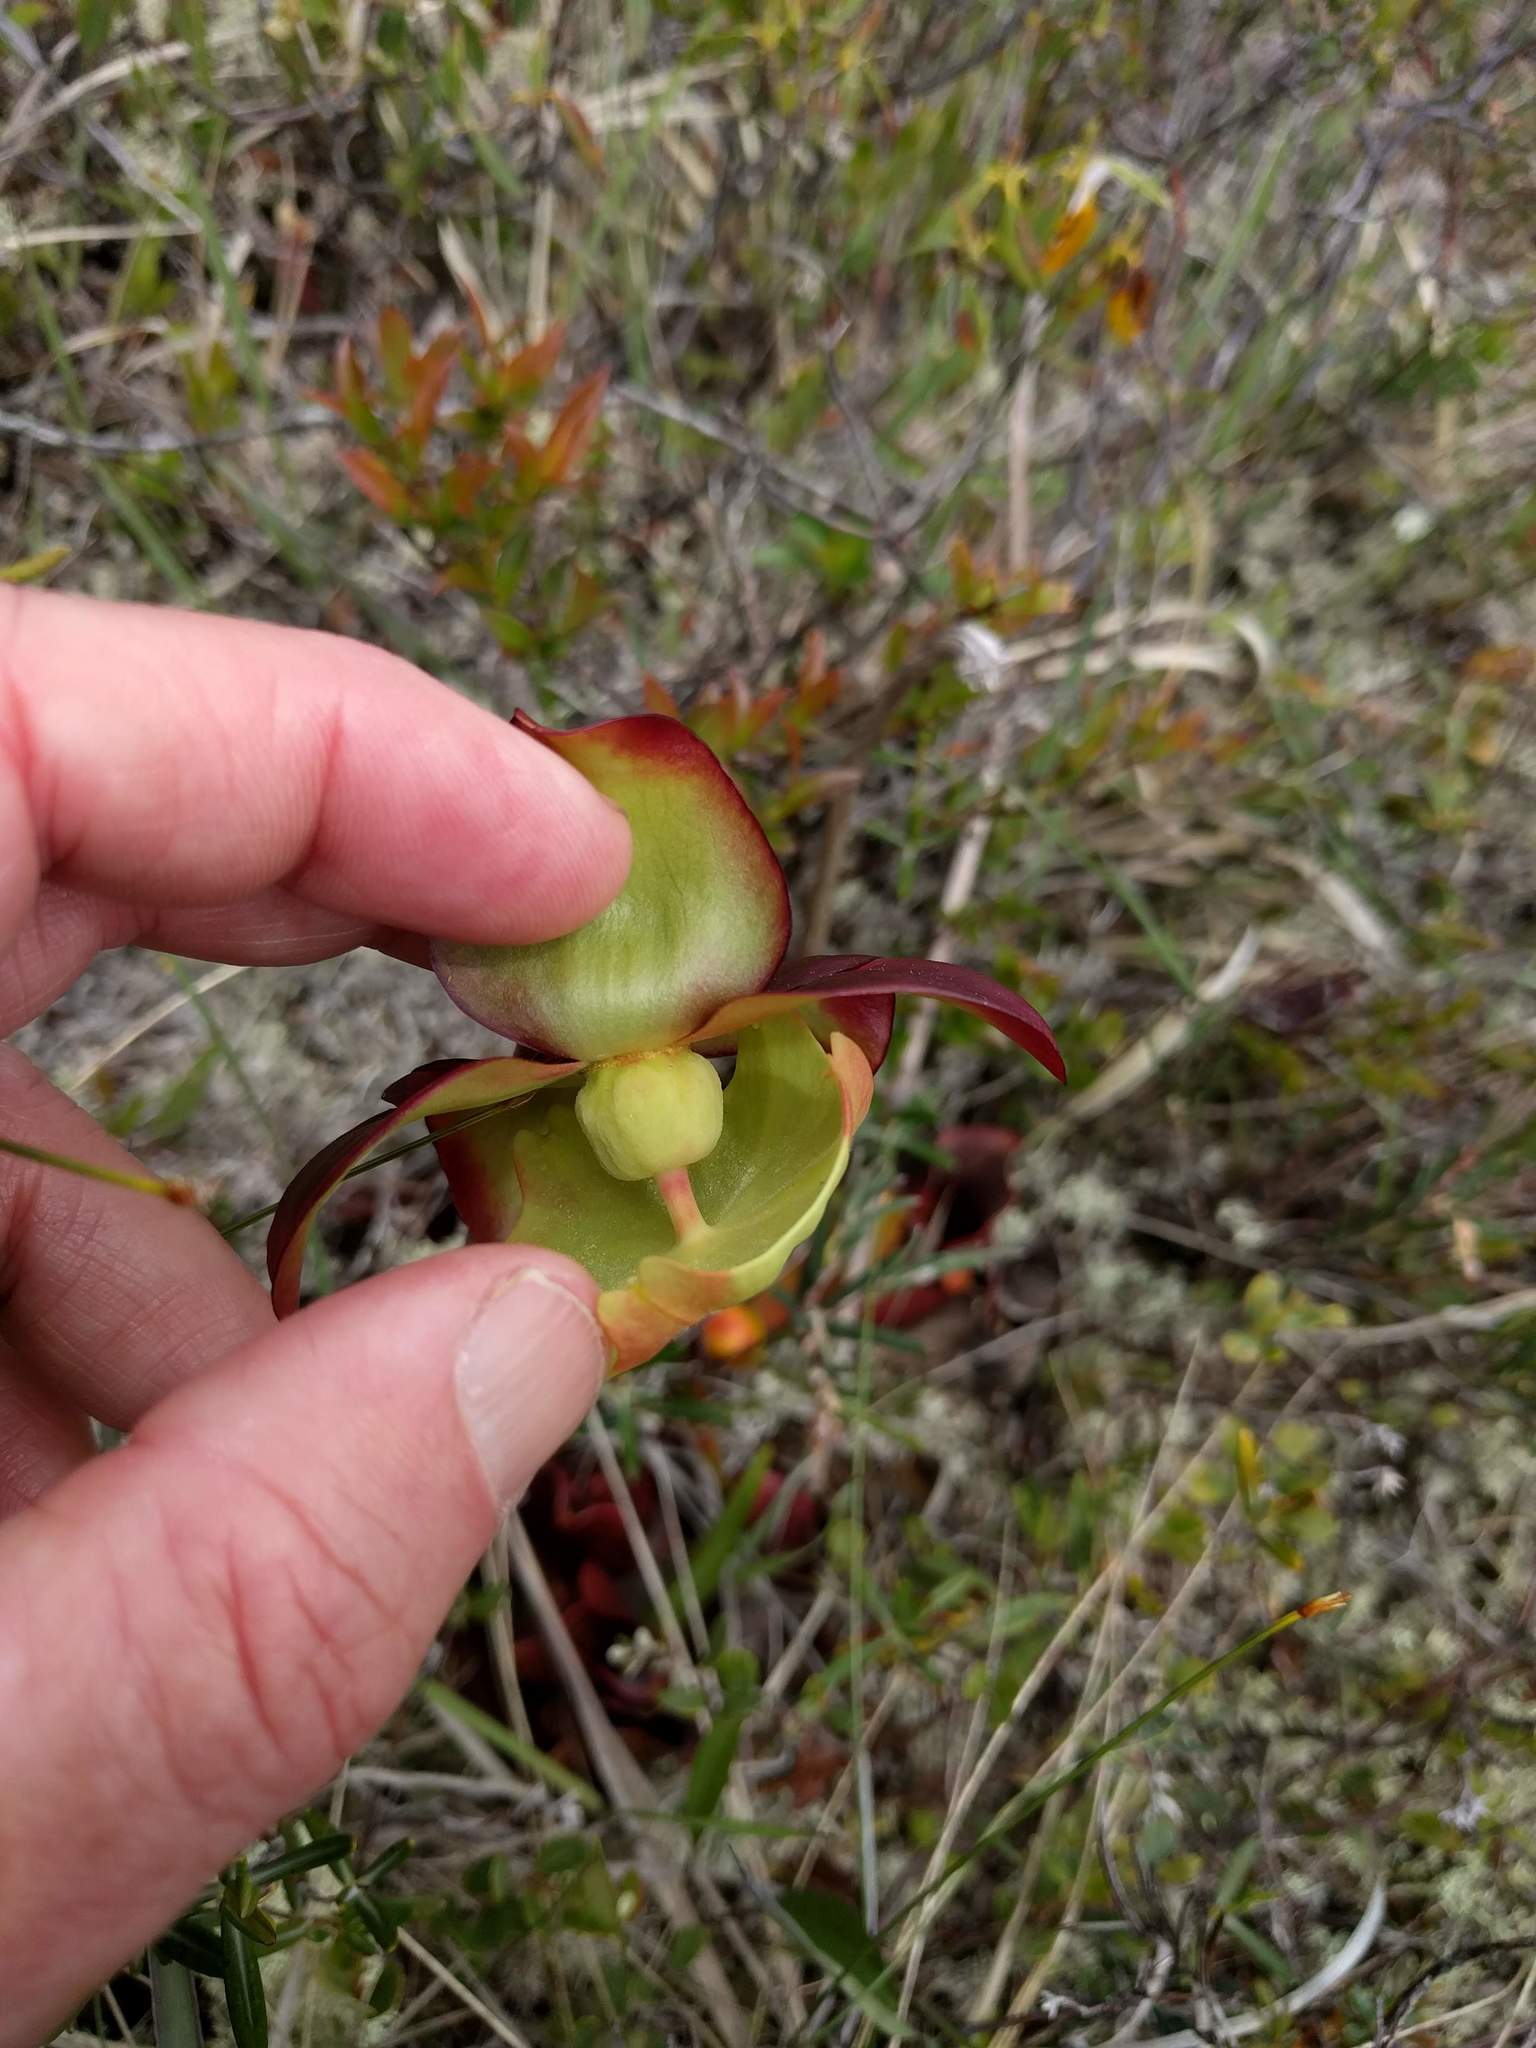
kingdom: Plantae
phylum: Tracheophyta
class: Magnoliopsida
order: Ericales
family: Sarraceniaceae
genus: Sarracenia
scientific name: Sarracenia purpurea
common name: Pitcherplant
